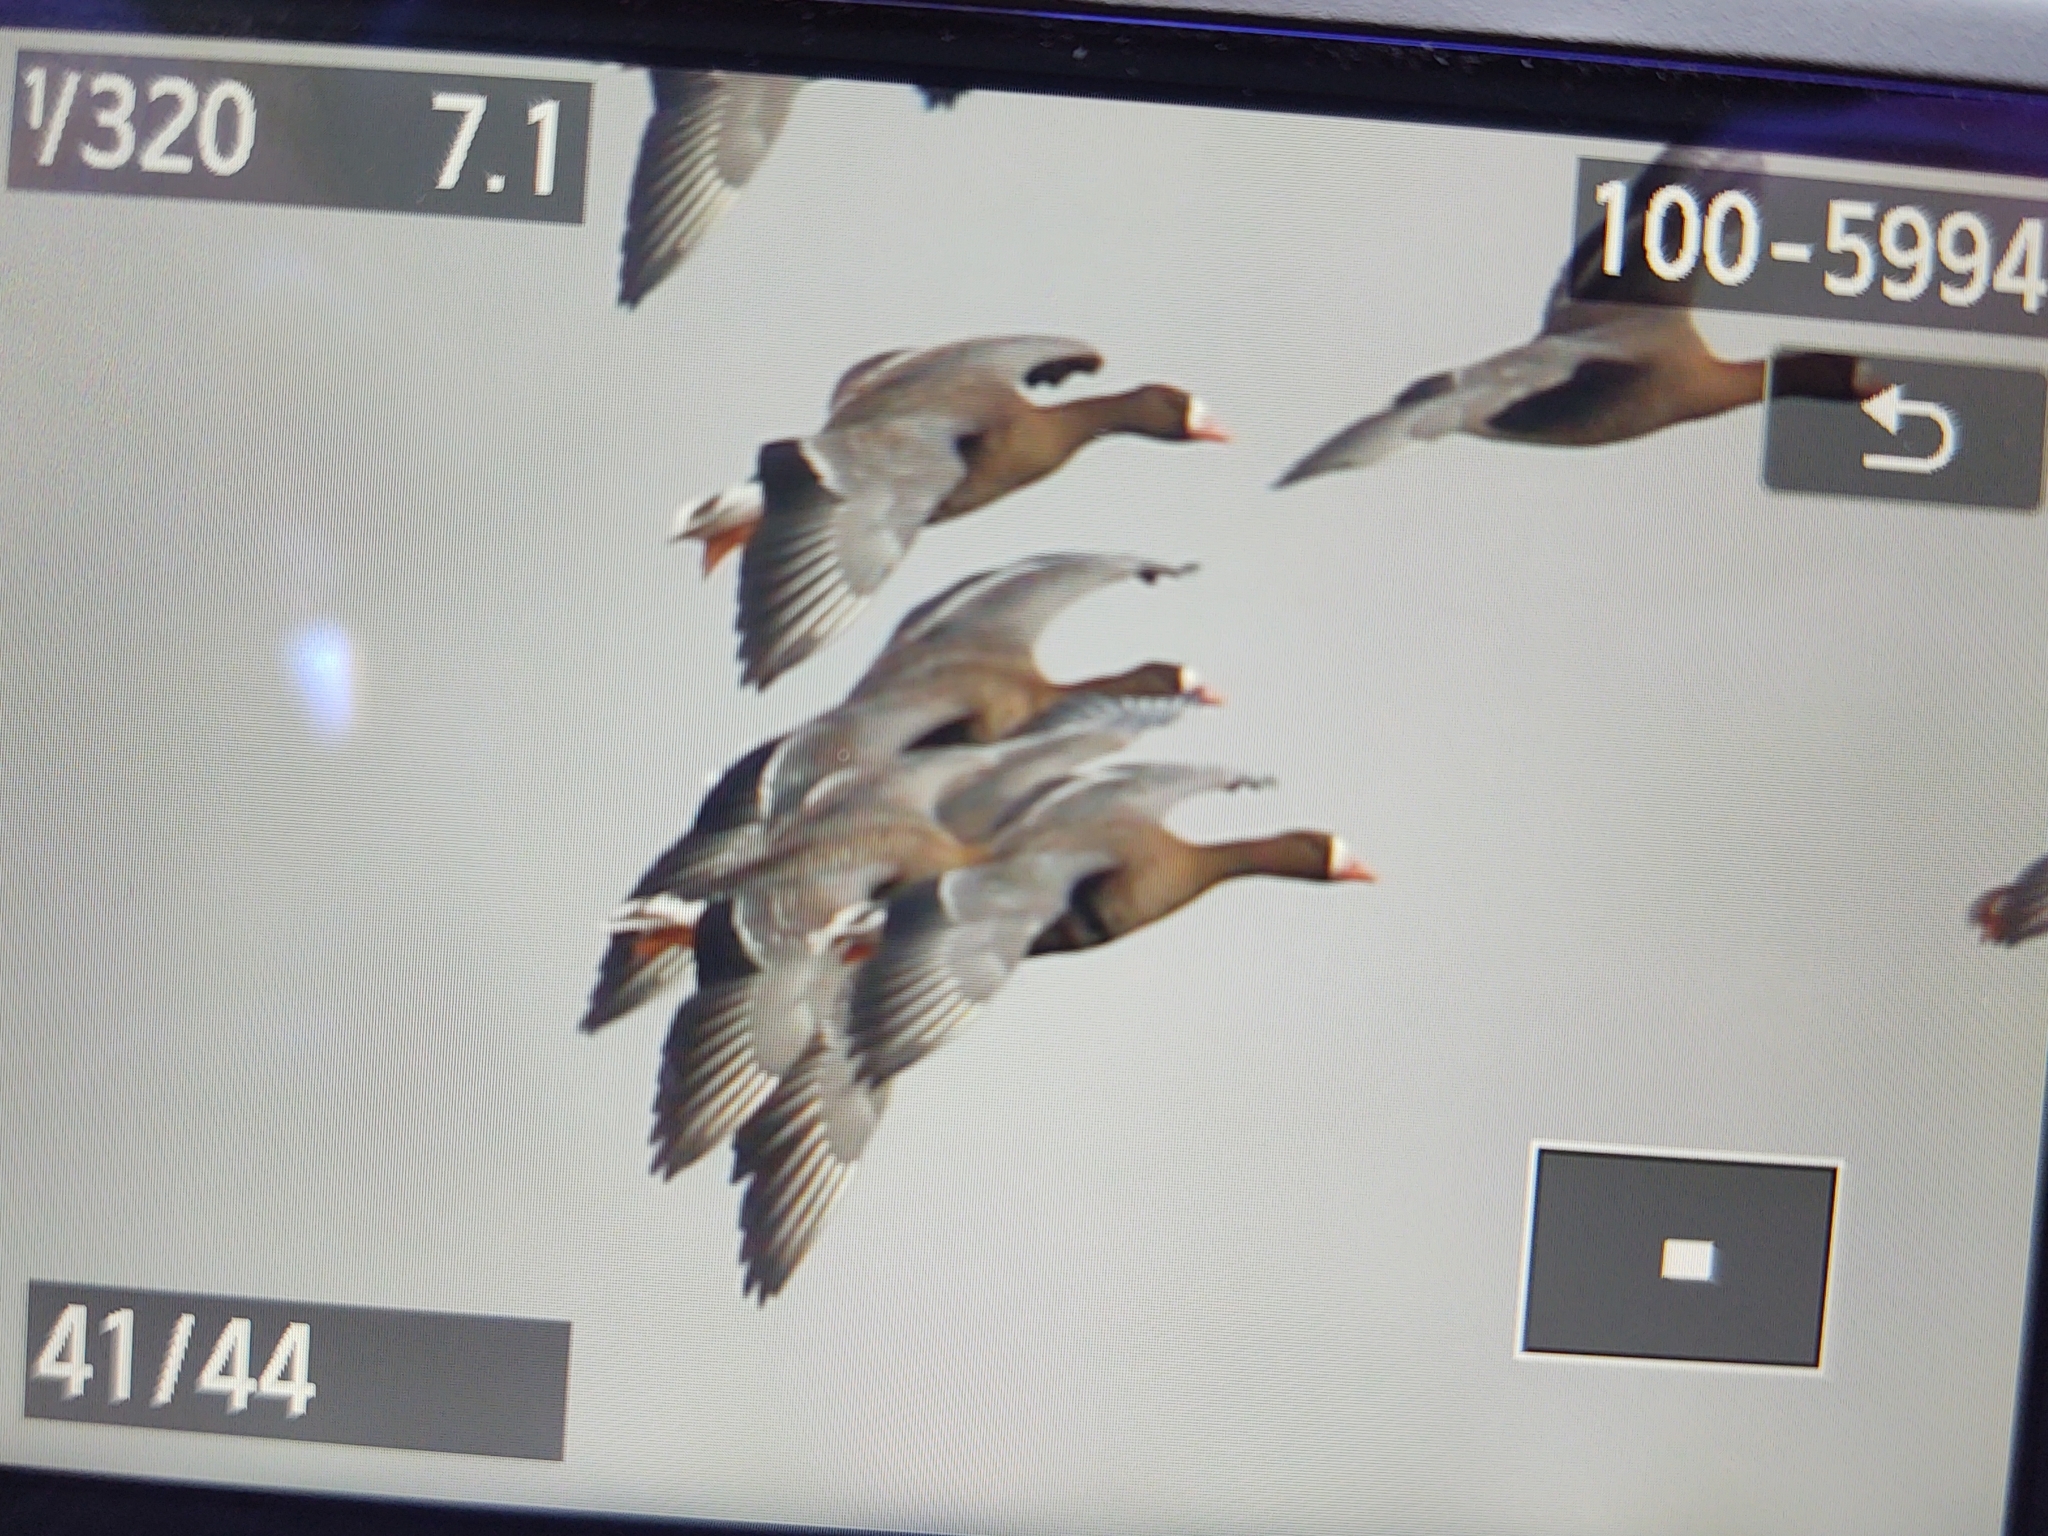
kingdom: Animalia
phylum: Chordata
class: Aves
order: Anseriformes
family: Anatidae
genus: Anser
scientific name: Anser albifrons
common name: Greater white-fronted goose
